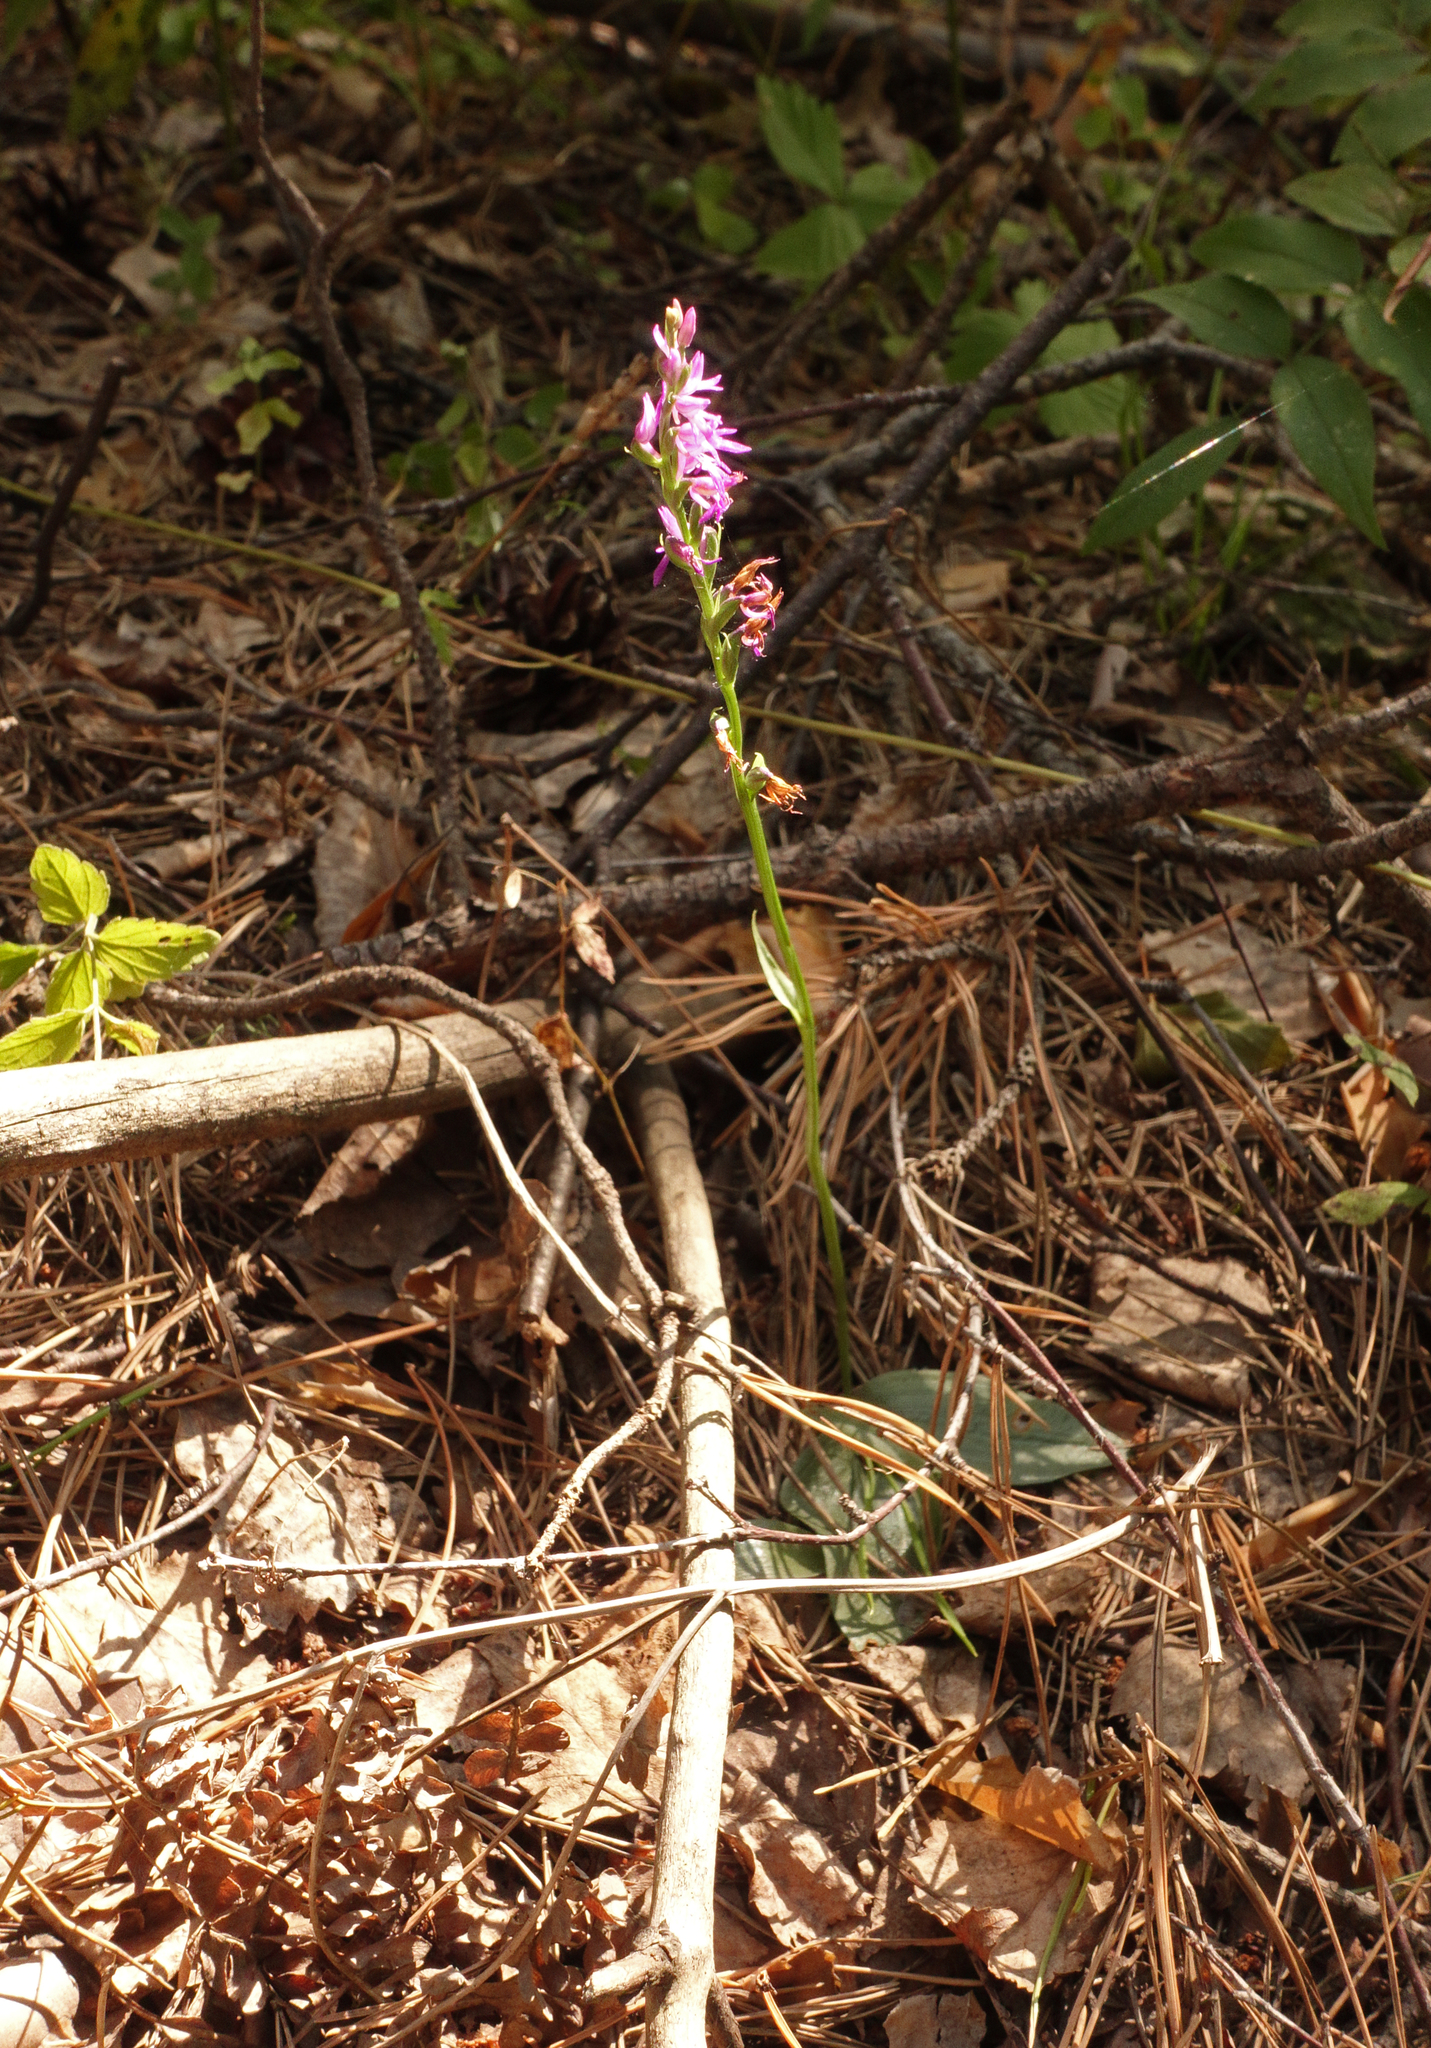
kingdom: Plantae
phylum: Tracheophyta
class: Liliopsida
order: Asparagales
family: Orchidaceae
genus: Hemipilia
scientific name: Hemipilia cucullata
